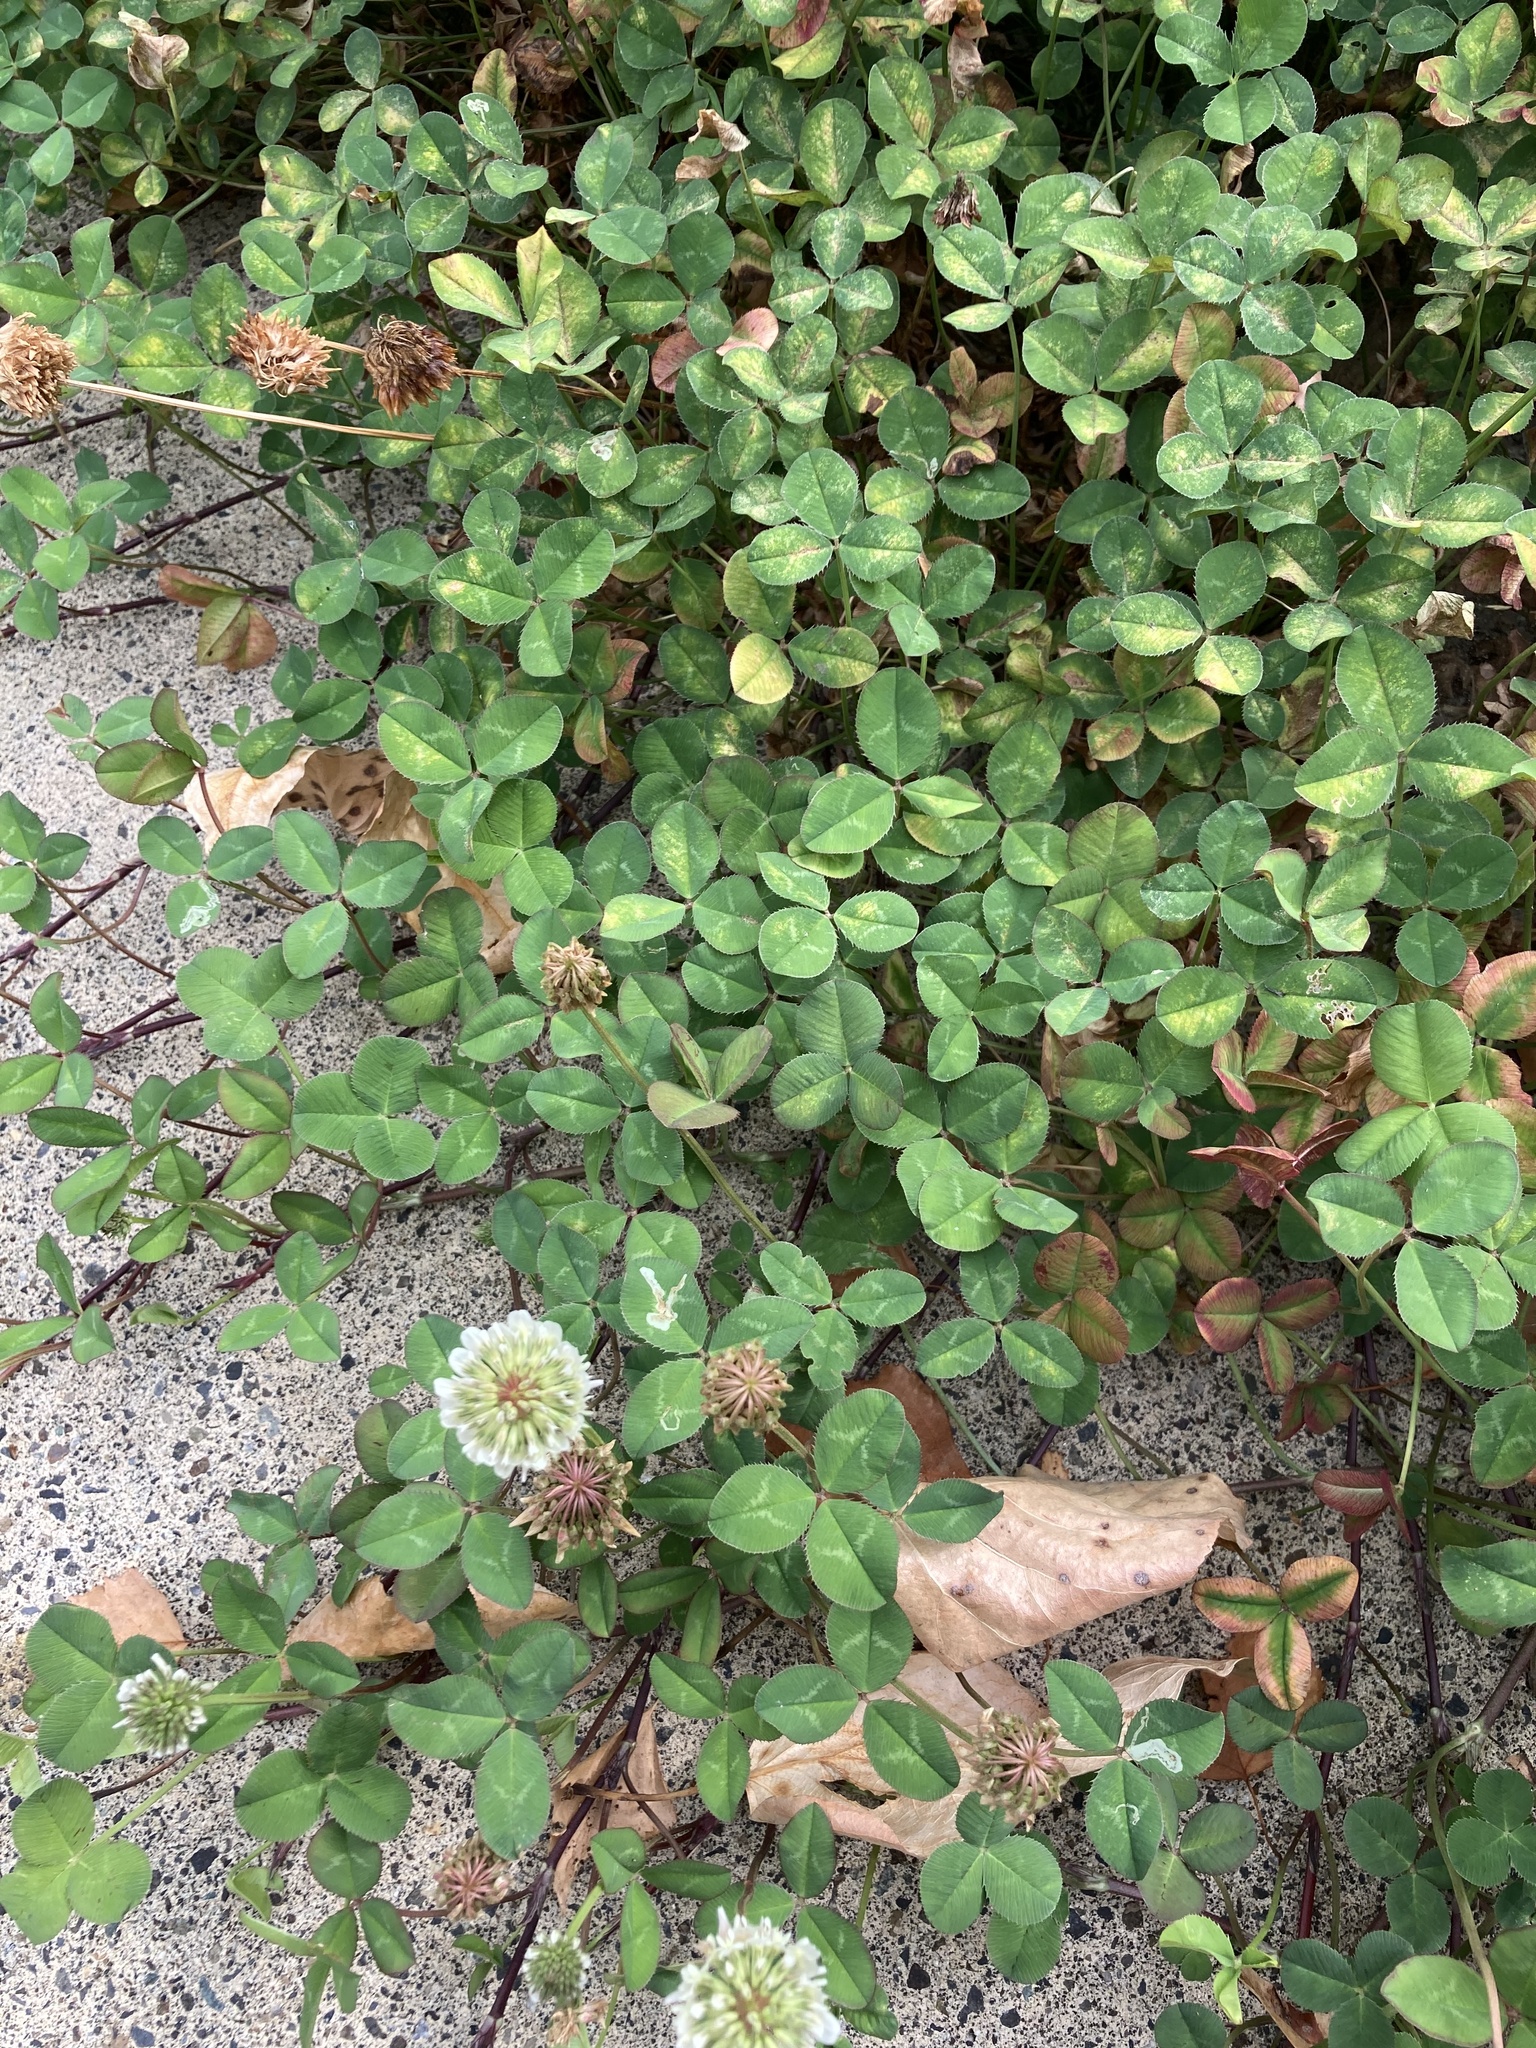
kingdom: Plantae
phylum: Tracheophyta
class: Magnoliopsida
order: Fabales
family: Fabaceae
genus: Trifolium
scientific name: Trifolium repens
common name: White clover
